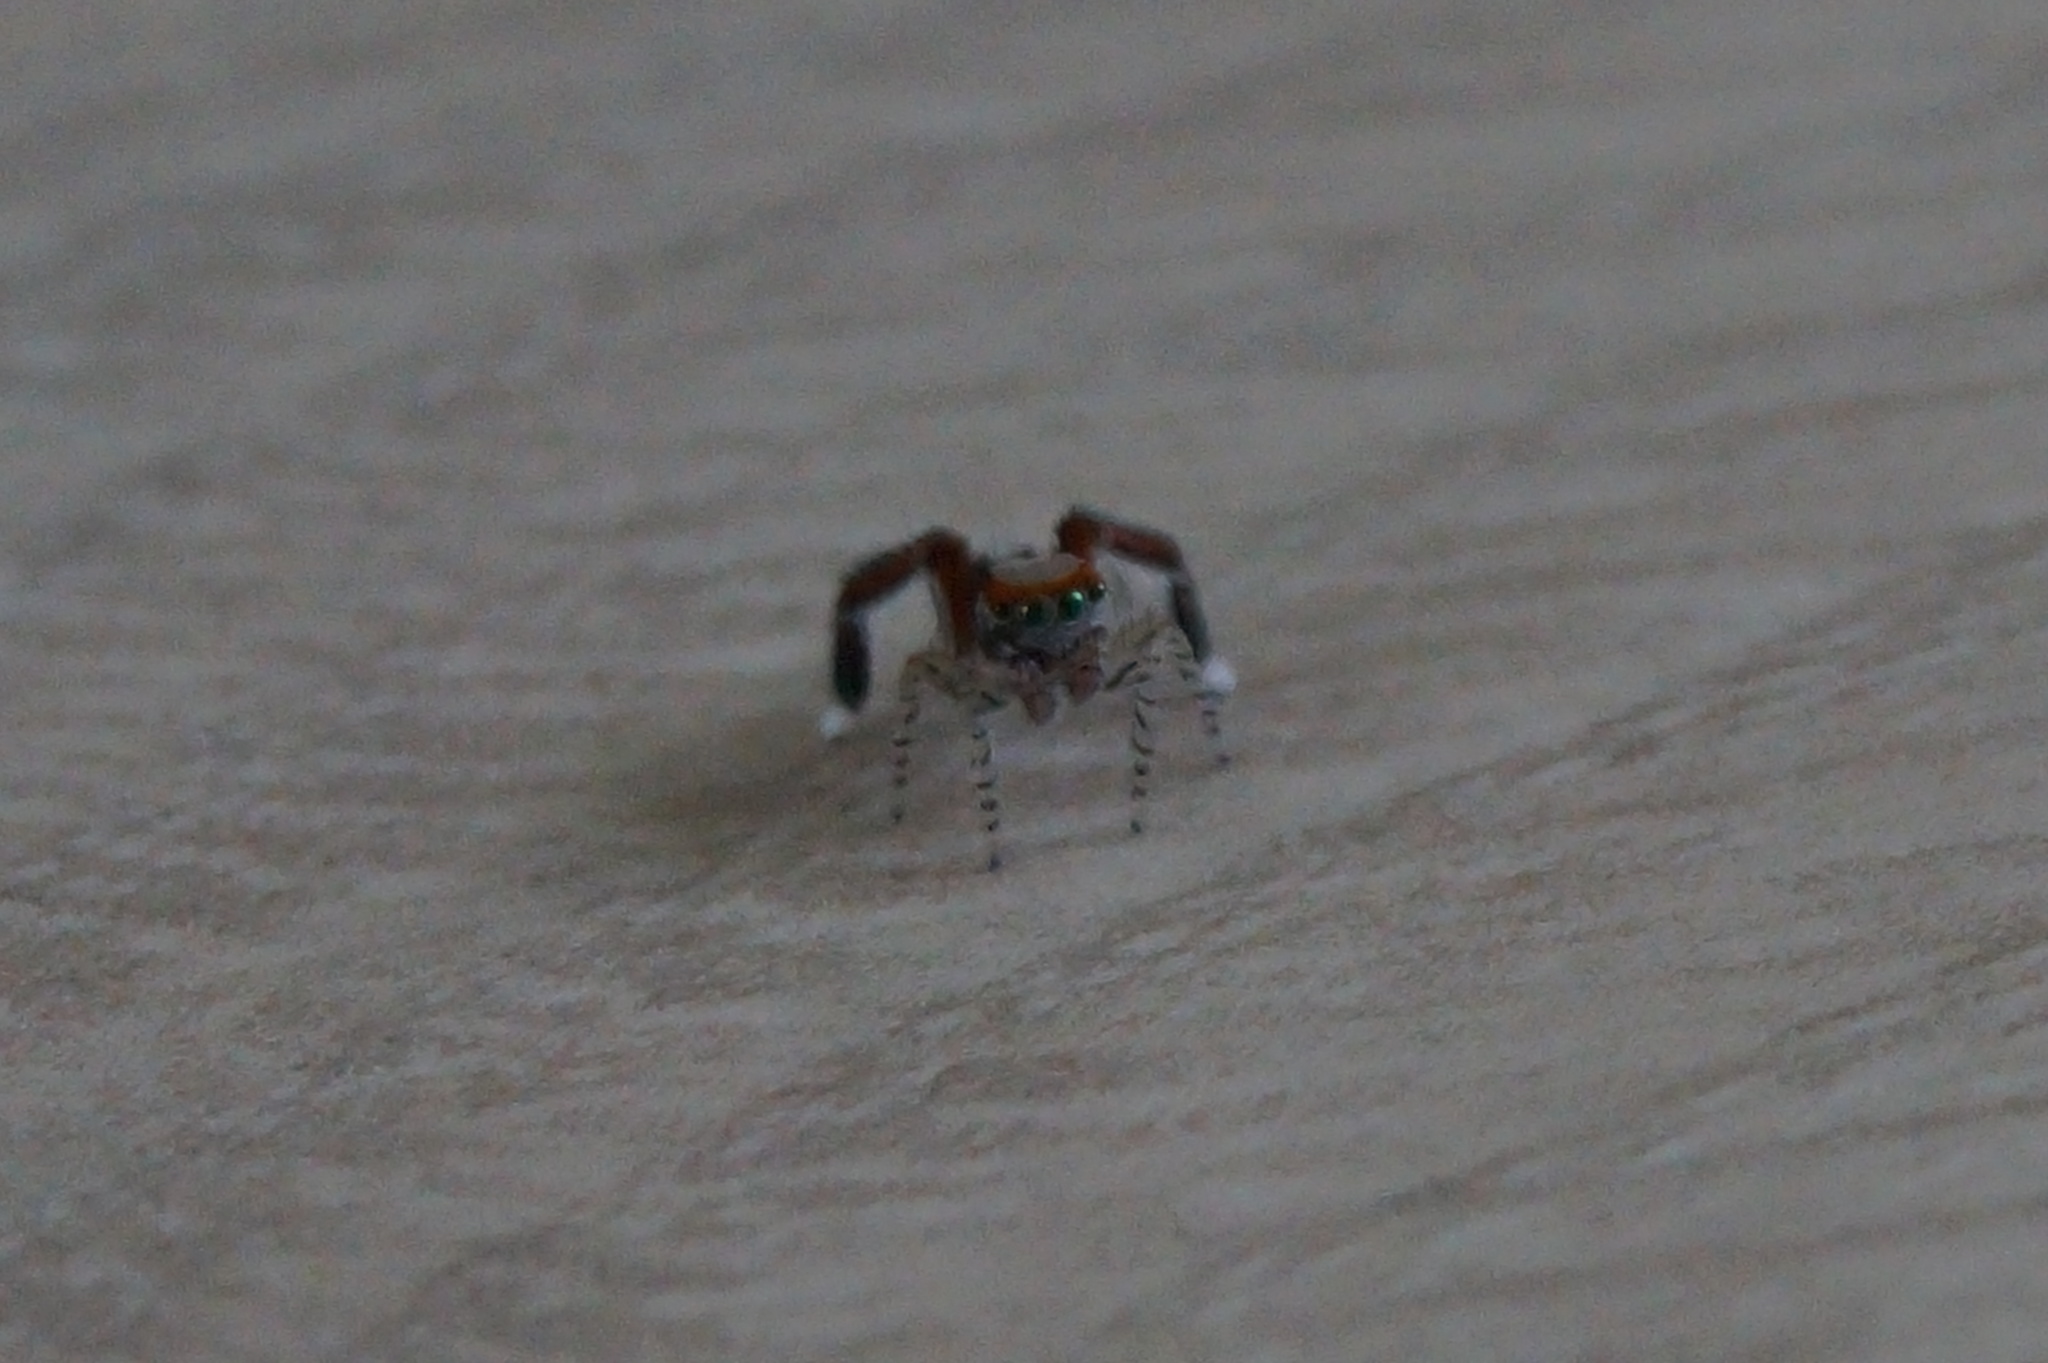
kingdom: Animalia
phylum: Arthropoda
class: Arachnida
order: Araneae
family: Salticidae
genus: Saitis
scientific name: Saitis barbipes
